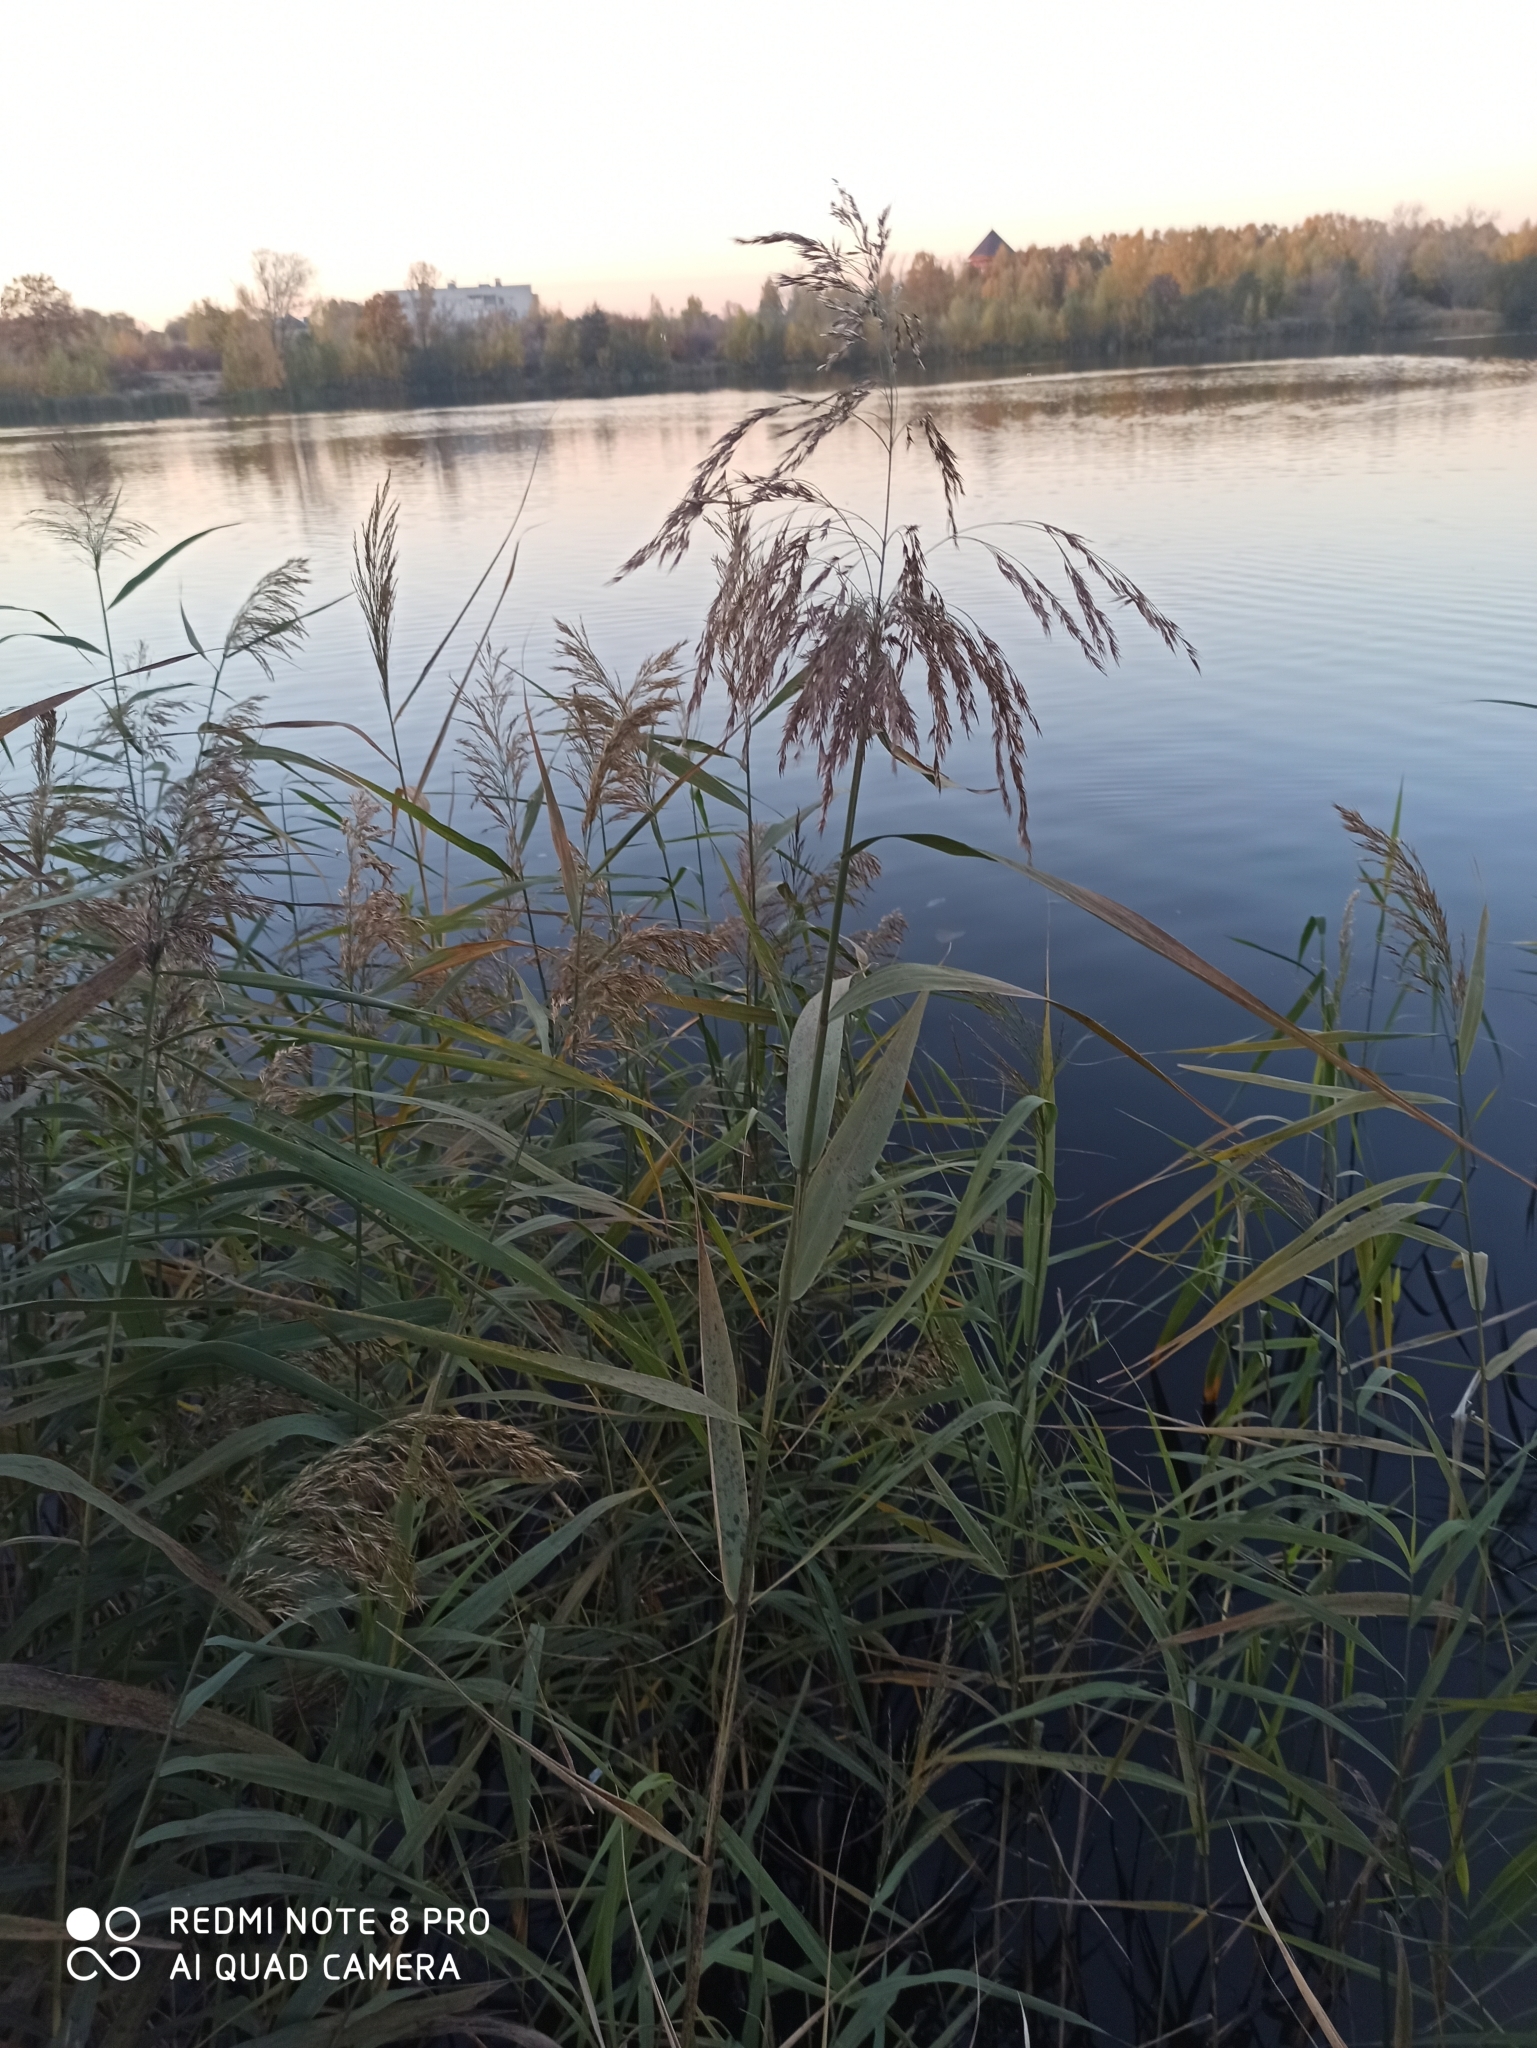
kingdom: Plantae
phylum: Tracheophyta
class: Liliopsida
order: Poales
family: Poaceae
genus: Phragmites
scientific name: Phragmites australis
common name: Common reed
